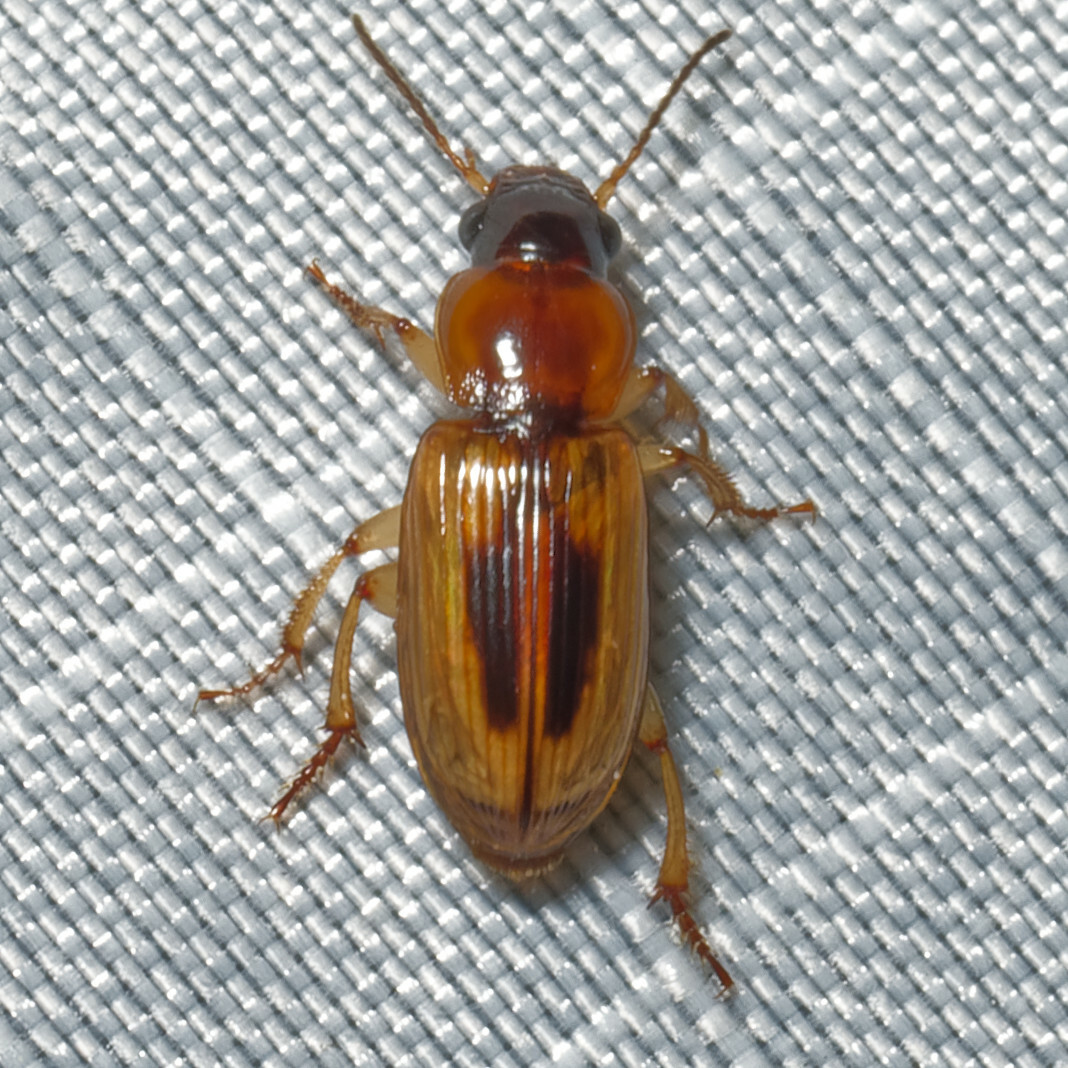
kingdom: Animalia
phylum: Arthropoda
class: Insecta
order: Coleoptera
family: Carabidae
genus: Stenolophus
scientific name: Stenolophus lecontei
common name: Leconte's seedcorn beetle
